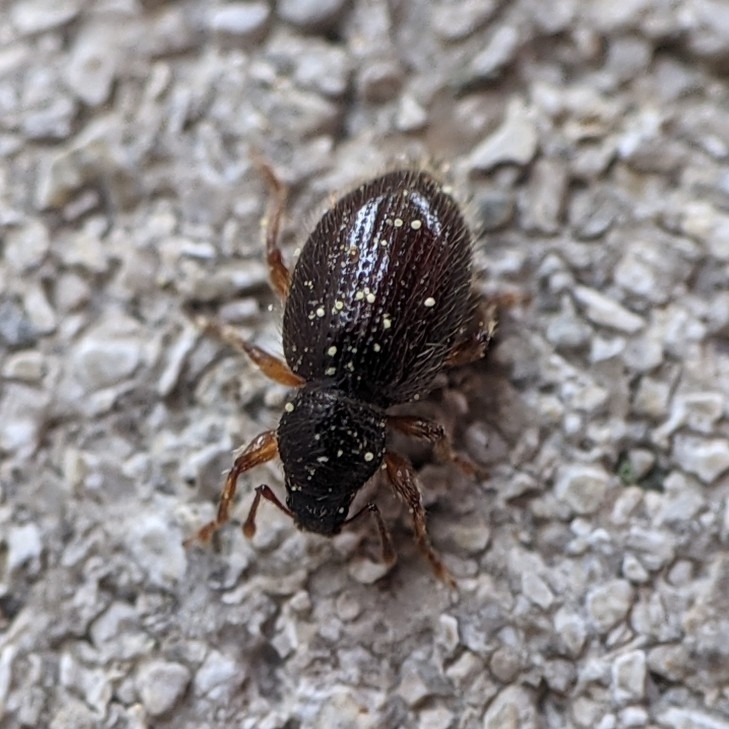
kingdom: Animalia
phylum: Arthropoda
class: Insecta
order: Coleoptera
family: Curculionidae
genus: Exomias
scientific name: Exomias pellucidus
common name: Hairy spider weevil
